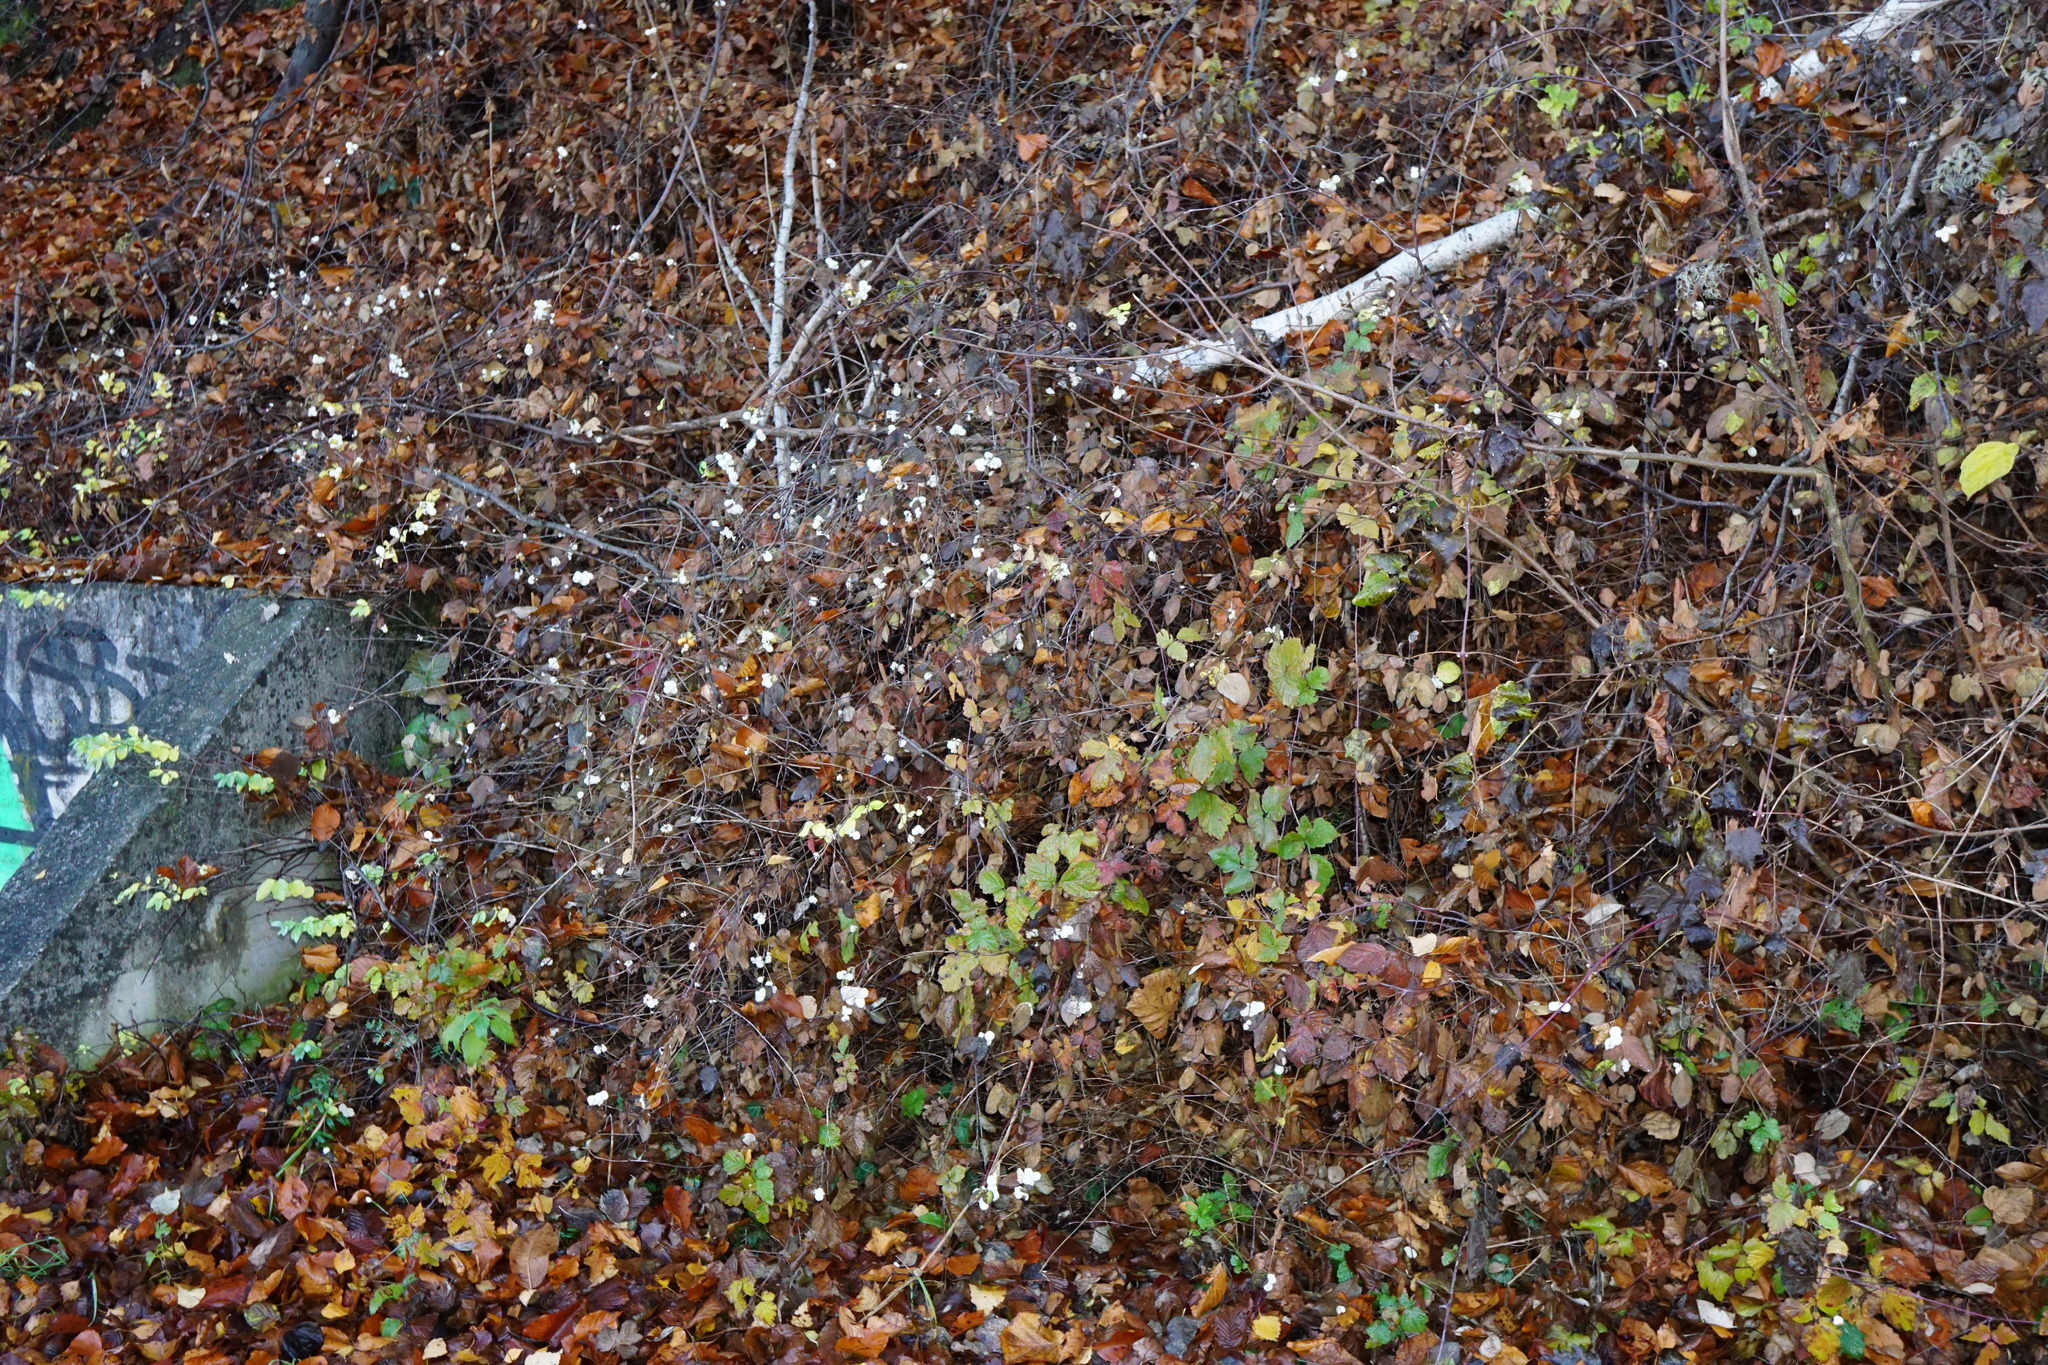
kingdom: Plantae
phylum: Tracheophyta
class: Magnoliopsida
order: Dipsacales
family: Caprifoliaceae
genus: Symphoricarpos
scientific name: Symphoricarpos albus
